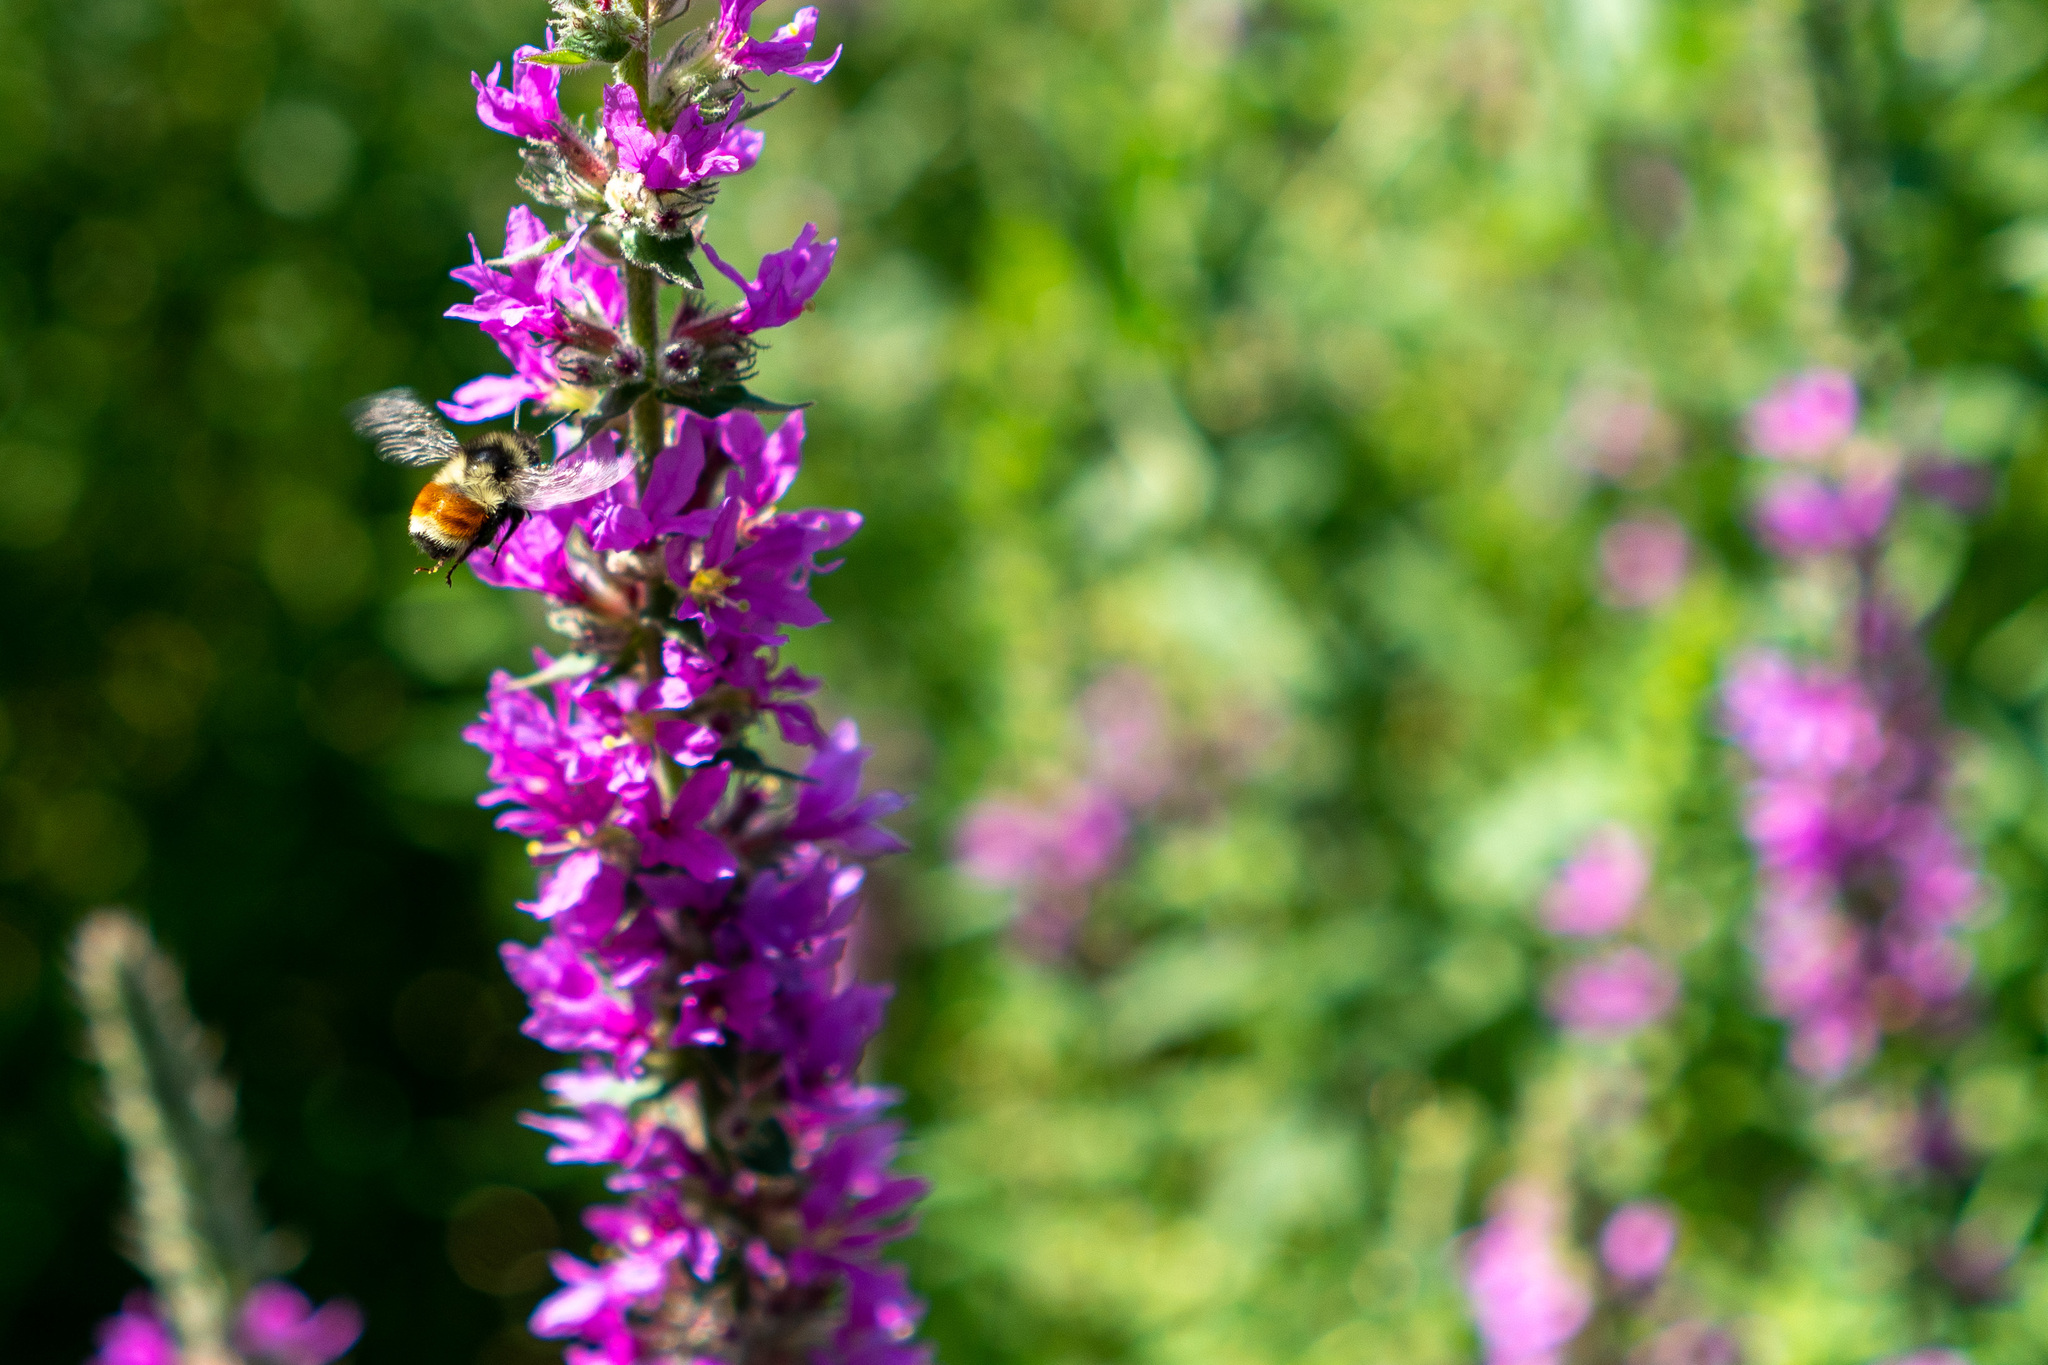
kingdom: Animalia
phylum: Arthropoda
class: Insecta
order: Hymenoptera
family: Apidae
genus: Bombus
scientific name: Bombus ternarius
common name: Tri-colored bumble bee
